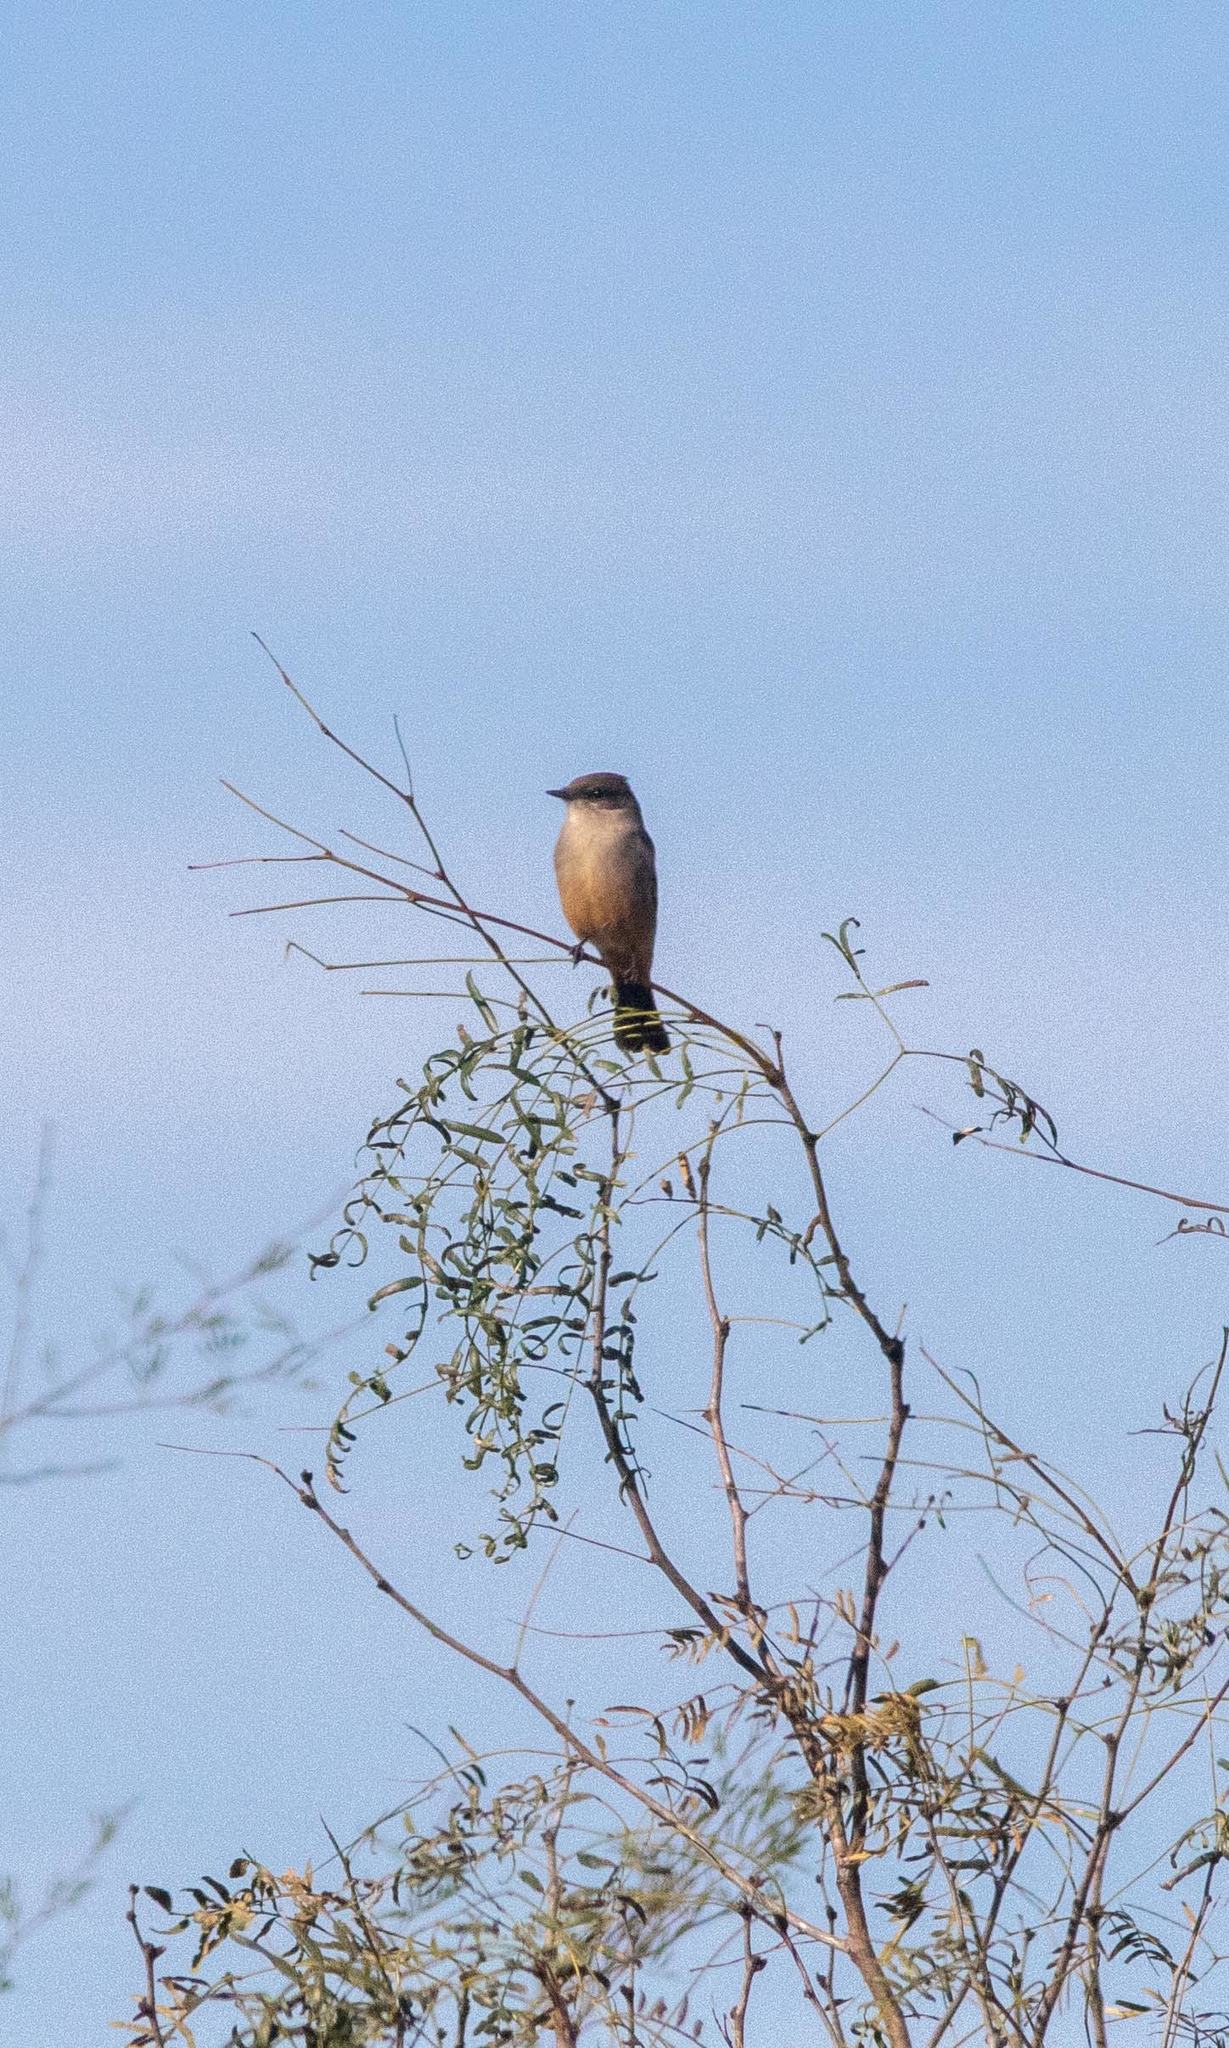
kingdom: Animalia
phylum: Chordata
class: Aves
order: Passeriformes
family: Tyrannidae
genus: Sayornis
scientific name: Sayornis saya
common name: Say's phoebe
